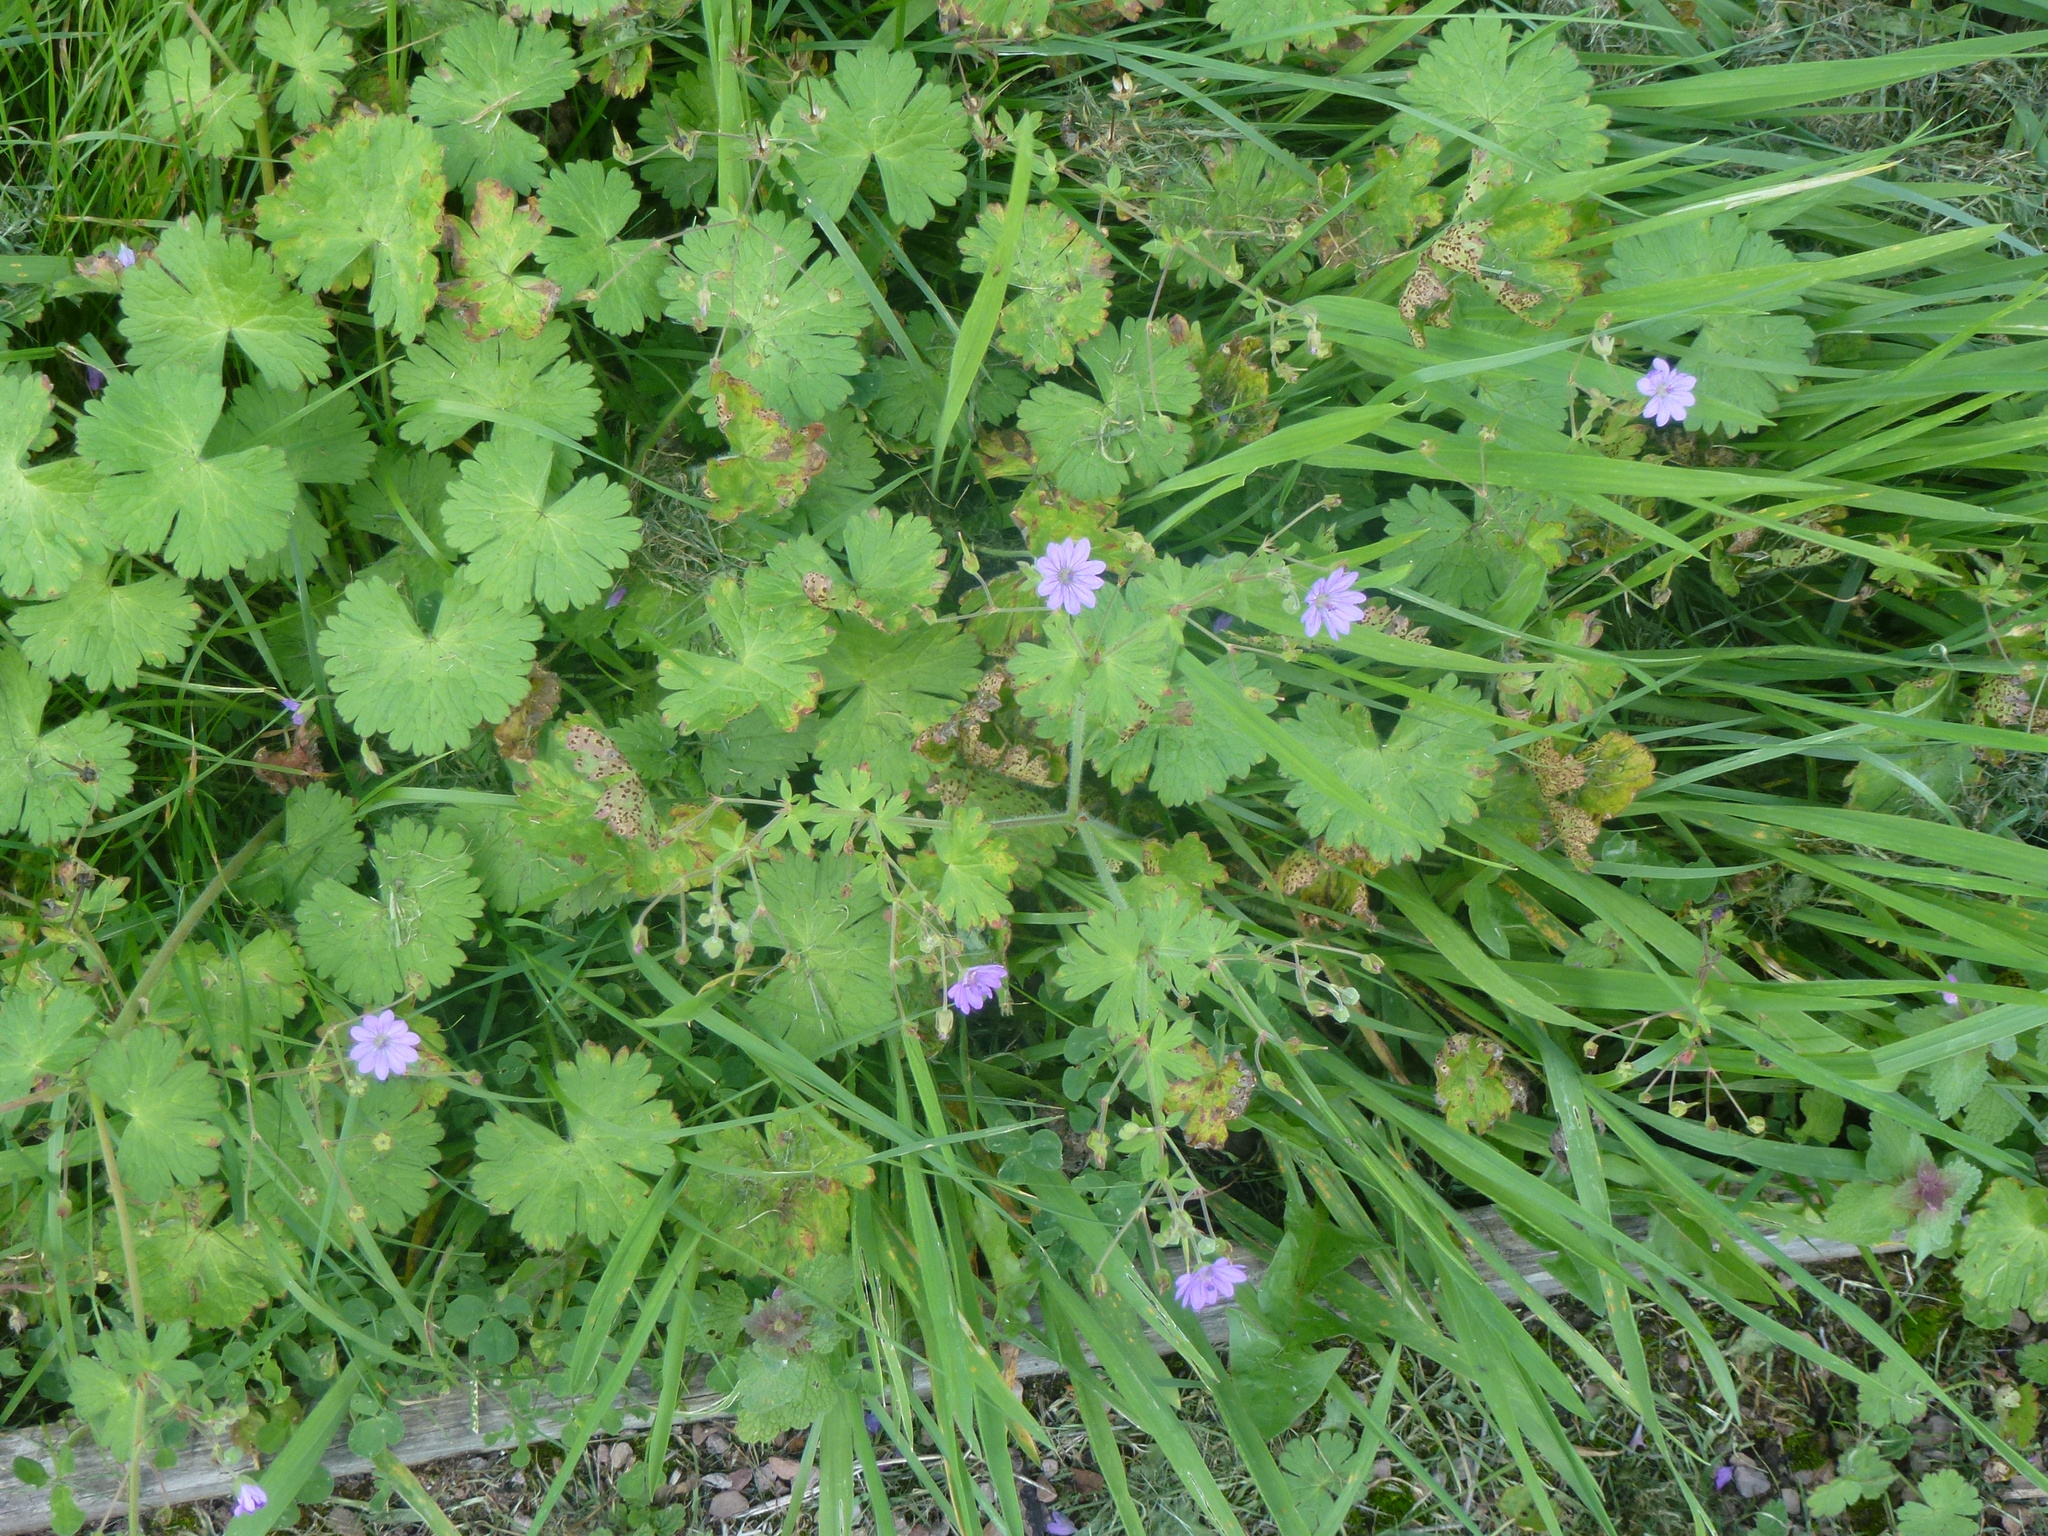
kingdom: Plantae
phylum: Tracheophyta
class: Magnoliopsida
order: Geraniales
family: Geraniaceae
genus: Geranium
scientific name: Geranium pyrenaicum
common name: Hedgerow crane's-bill
